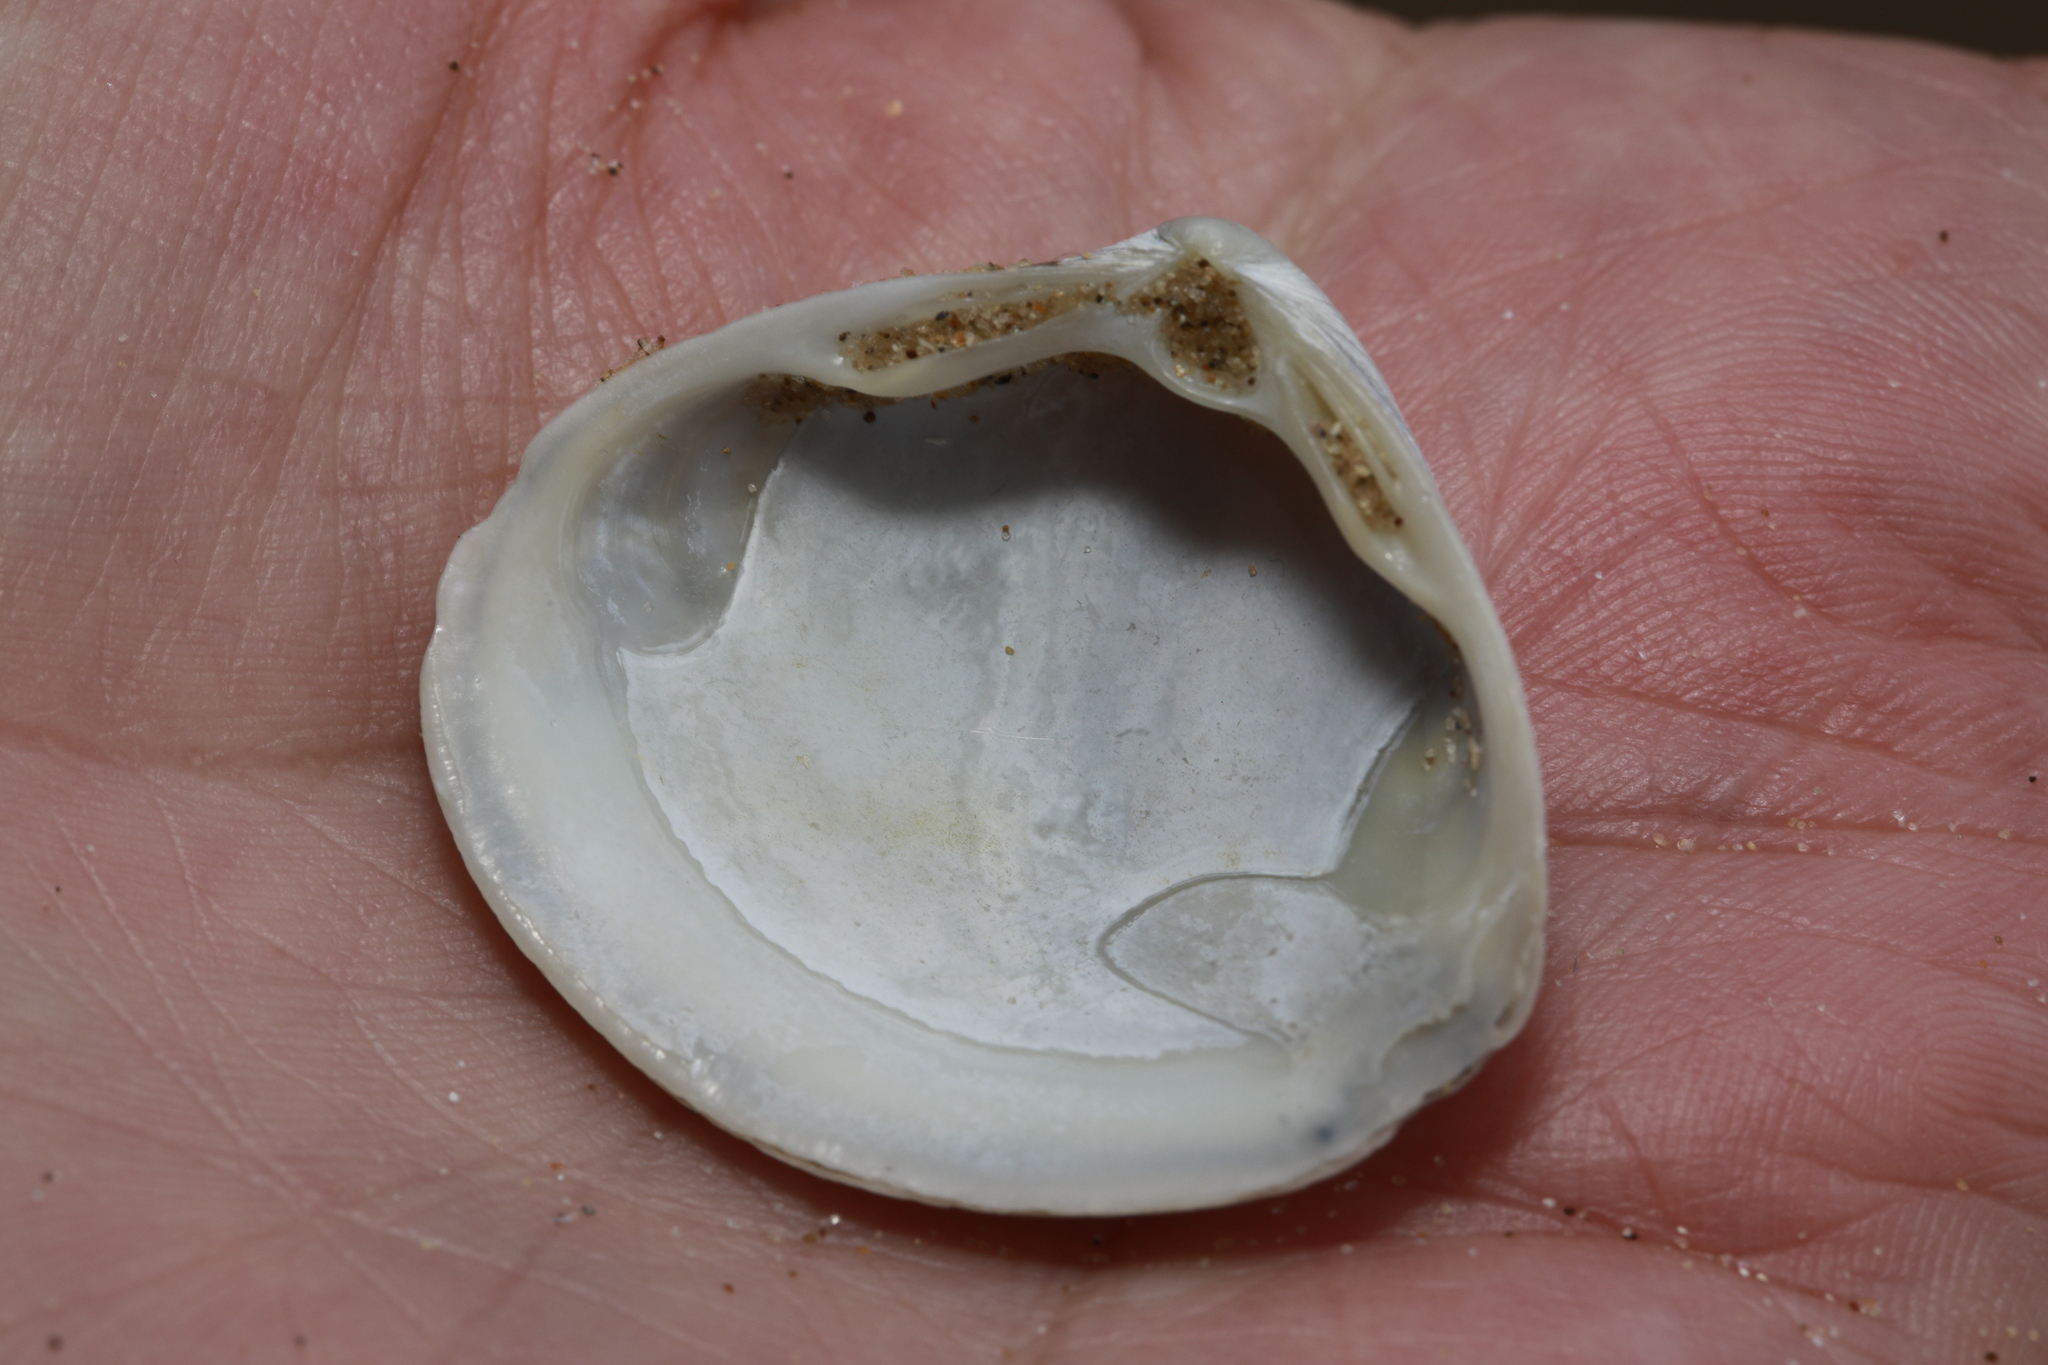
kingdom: Animalia
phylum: Mollusca
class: Bivalvia
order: Venerida
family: Mactridae
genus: Spisula
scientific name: Spisula solida
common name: Thick trough shell
